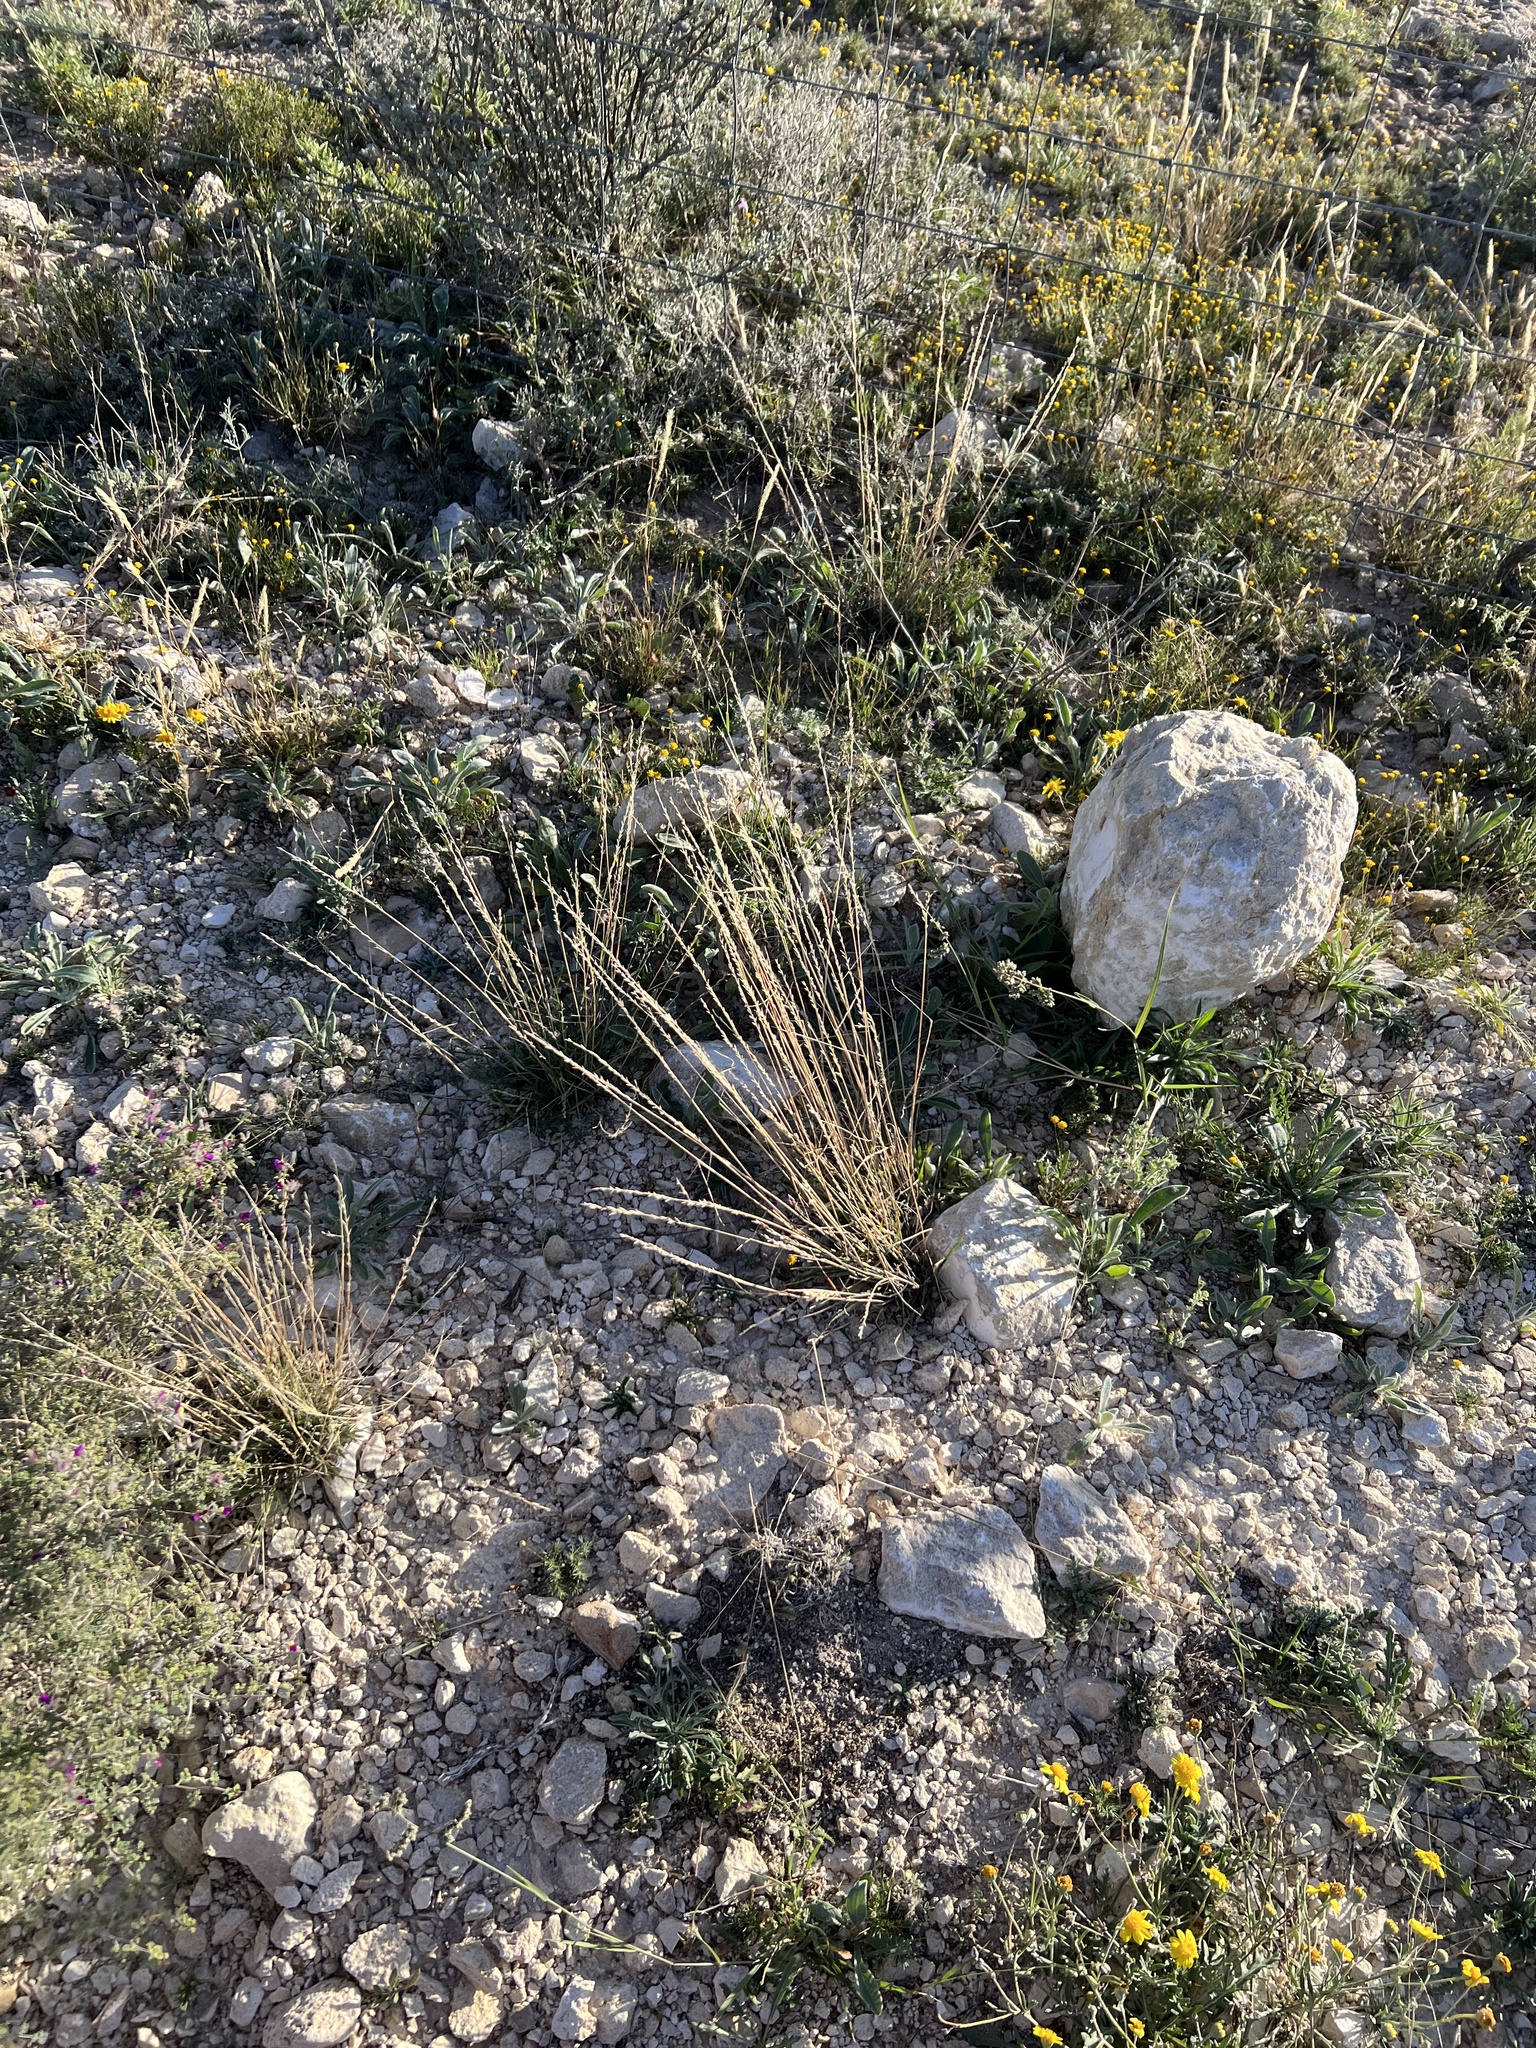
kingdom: Plantae
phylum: Tracheophyta
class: Liliopsida
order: Poales
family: Poaceae
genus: Tridentopsis
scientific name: Tridentopsis mutica
